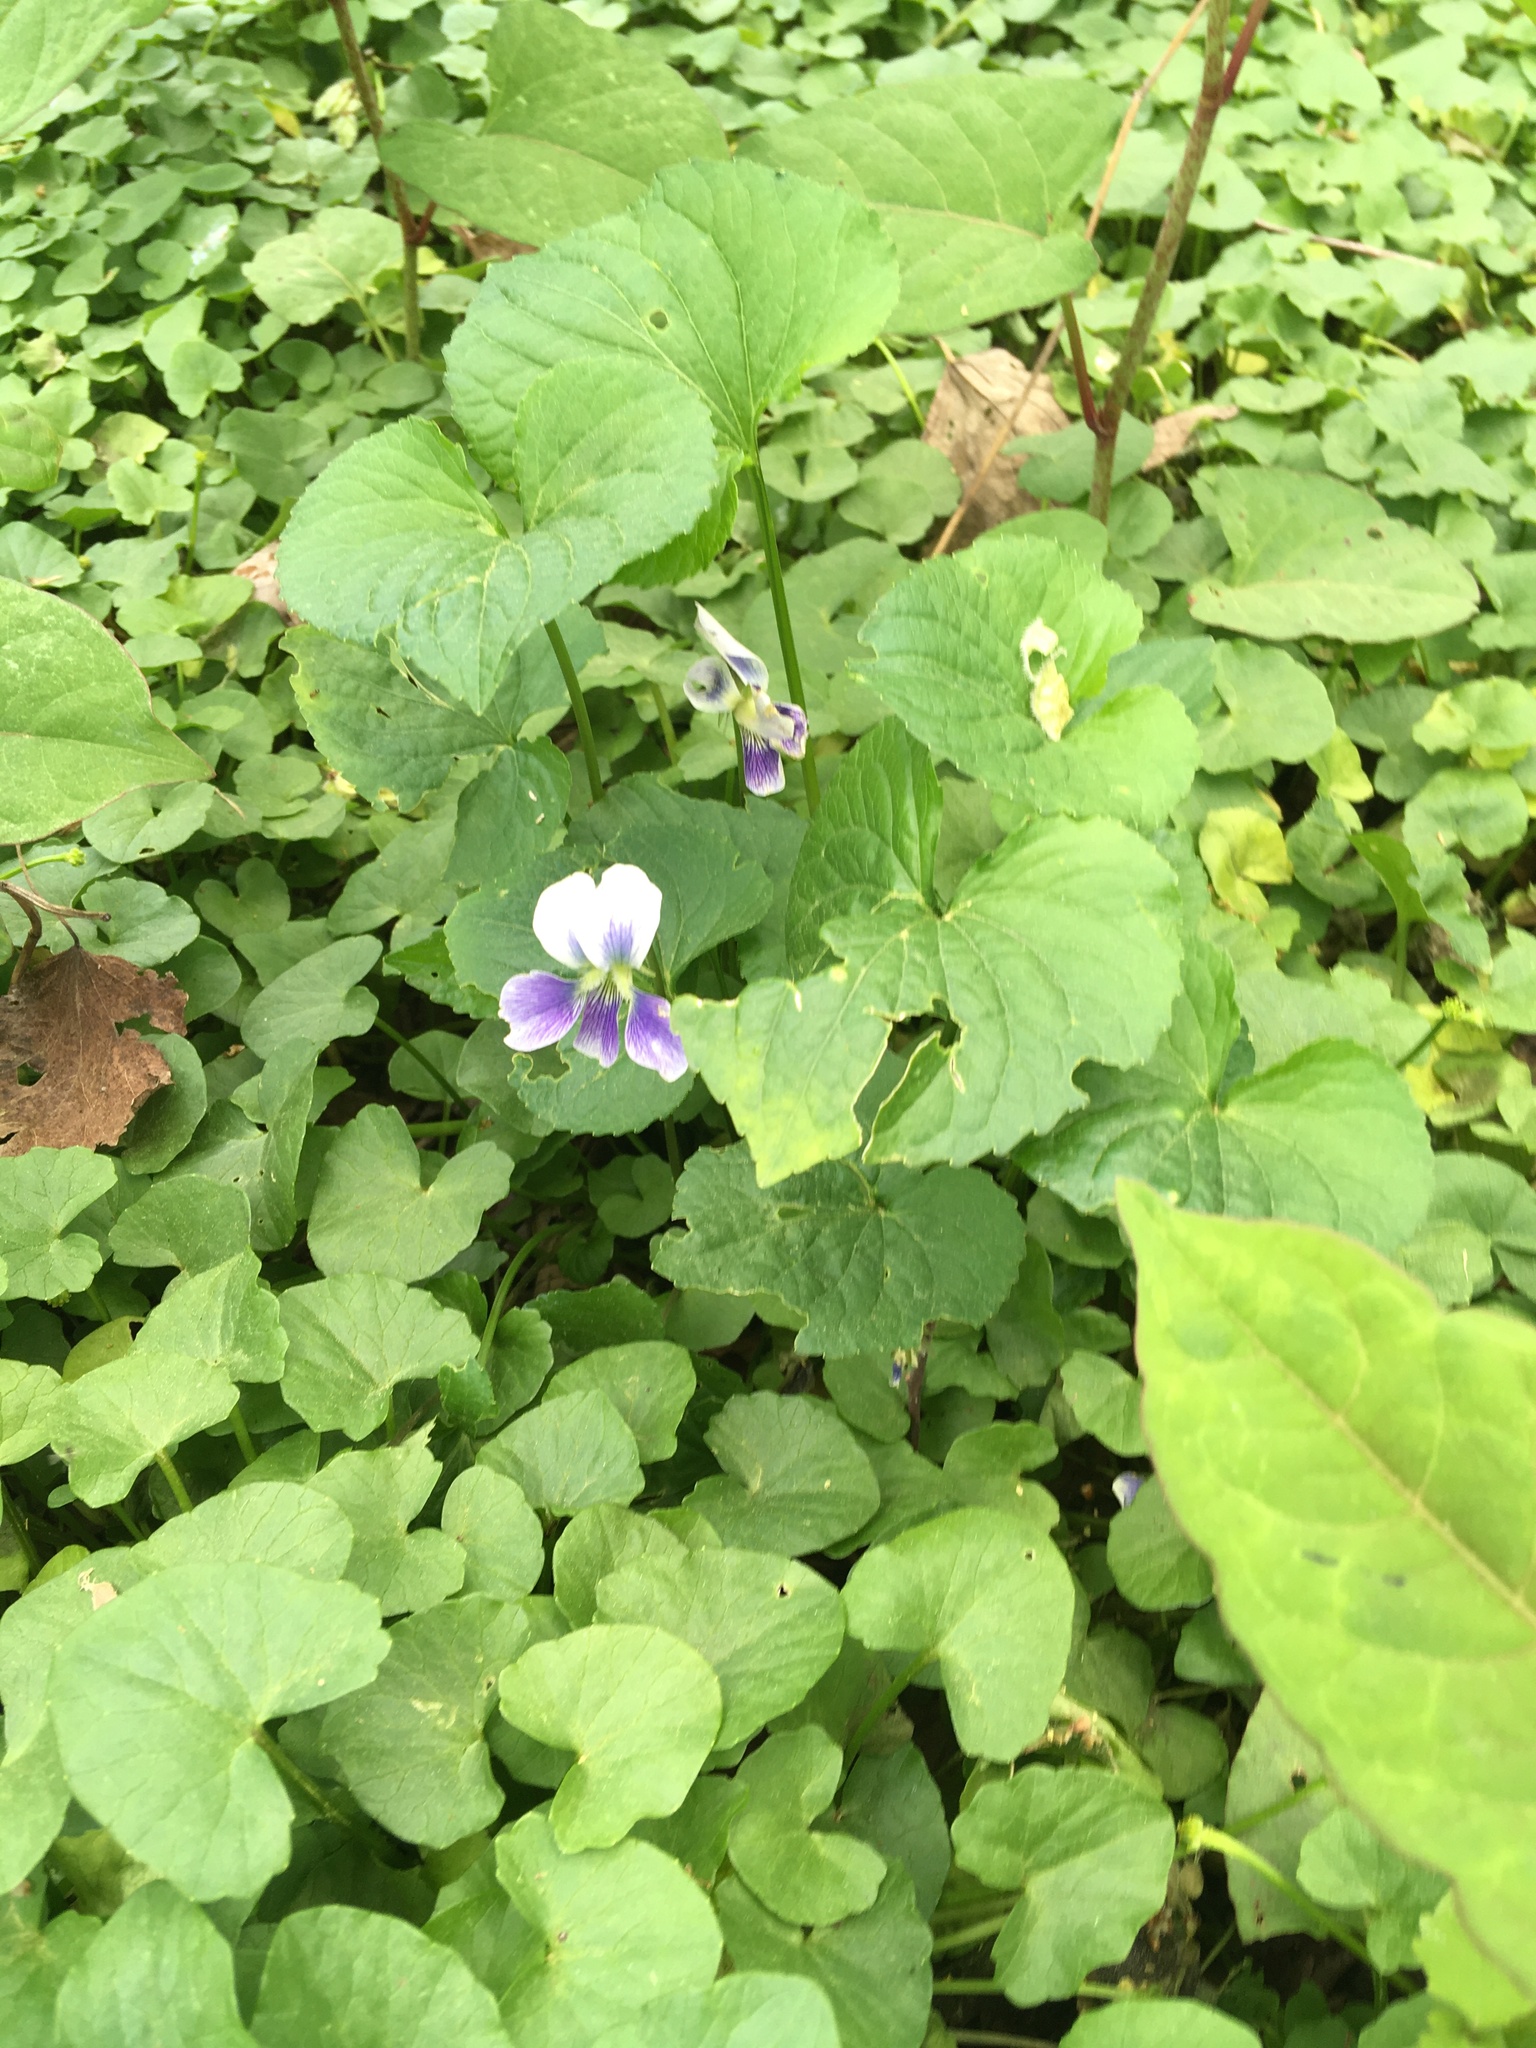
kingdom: Plantae
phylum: Tracheophyta
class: Magnoliopsida
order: Malpighiales
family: Violaceae
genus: Viola
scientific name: Viola sororia
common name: Dooryard violet
